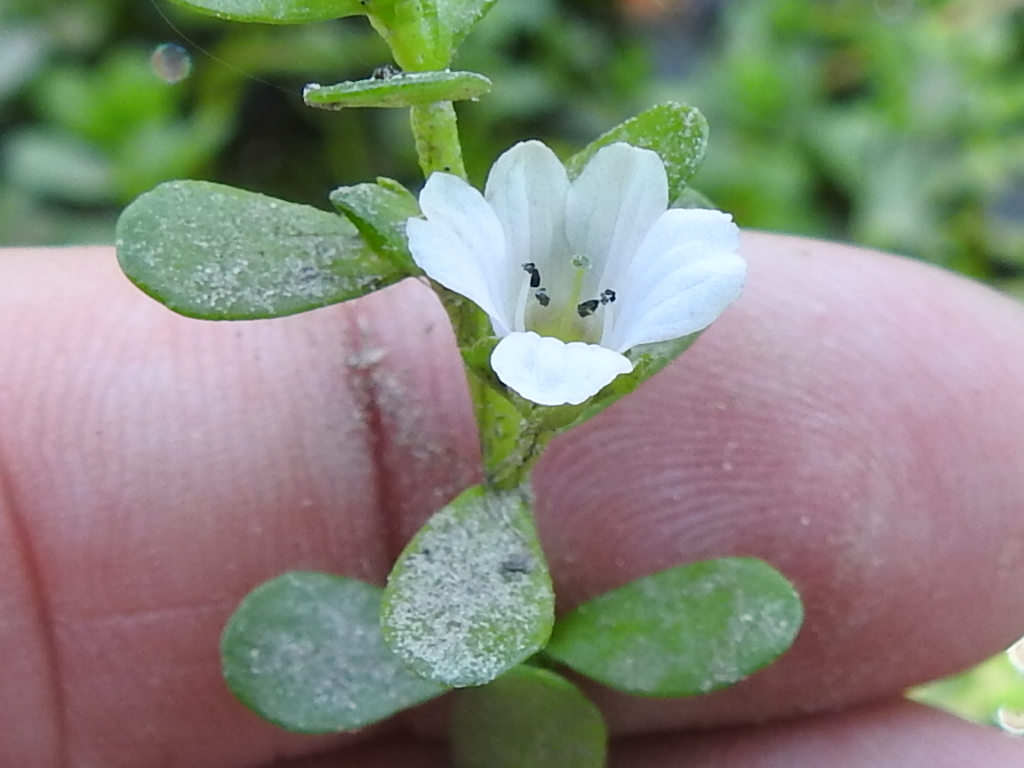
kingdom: Plantae
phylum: Tracheophyta
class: Magnoliopsida
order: Lamiales
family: Plantaginaceae
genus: Bacopa
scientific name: Bacopa monnieri
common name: Indian-pennywort
